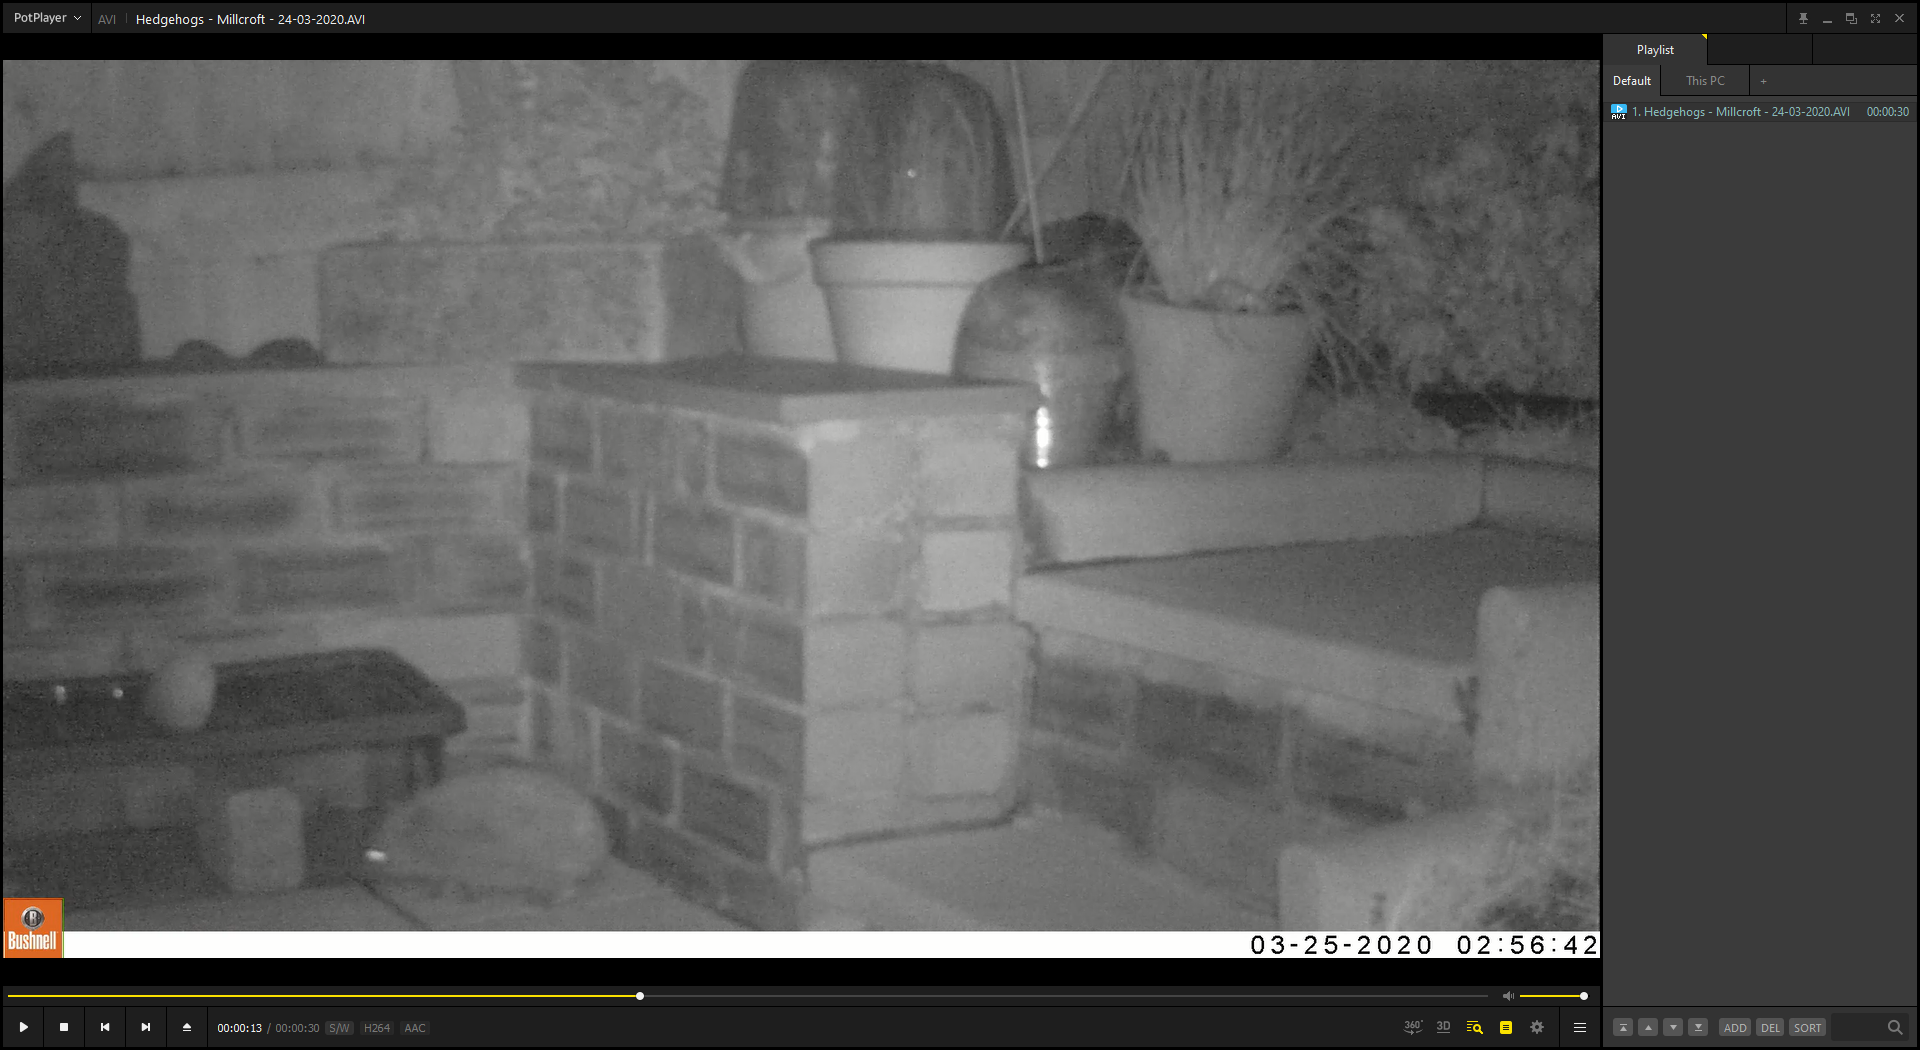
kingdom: Animalia
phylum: Chordata
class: Mammalia
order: Erinaceomorpha
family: Erinaceidae
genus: Erinaceus
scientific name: Erinaceus europaeus
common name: West european hedgehog
